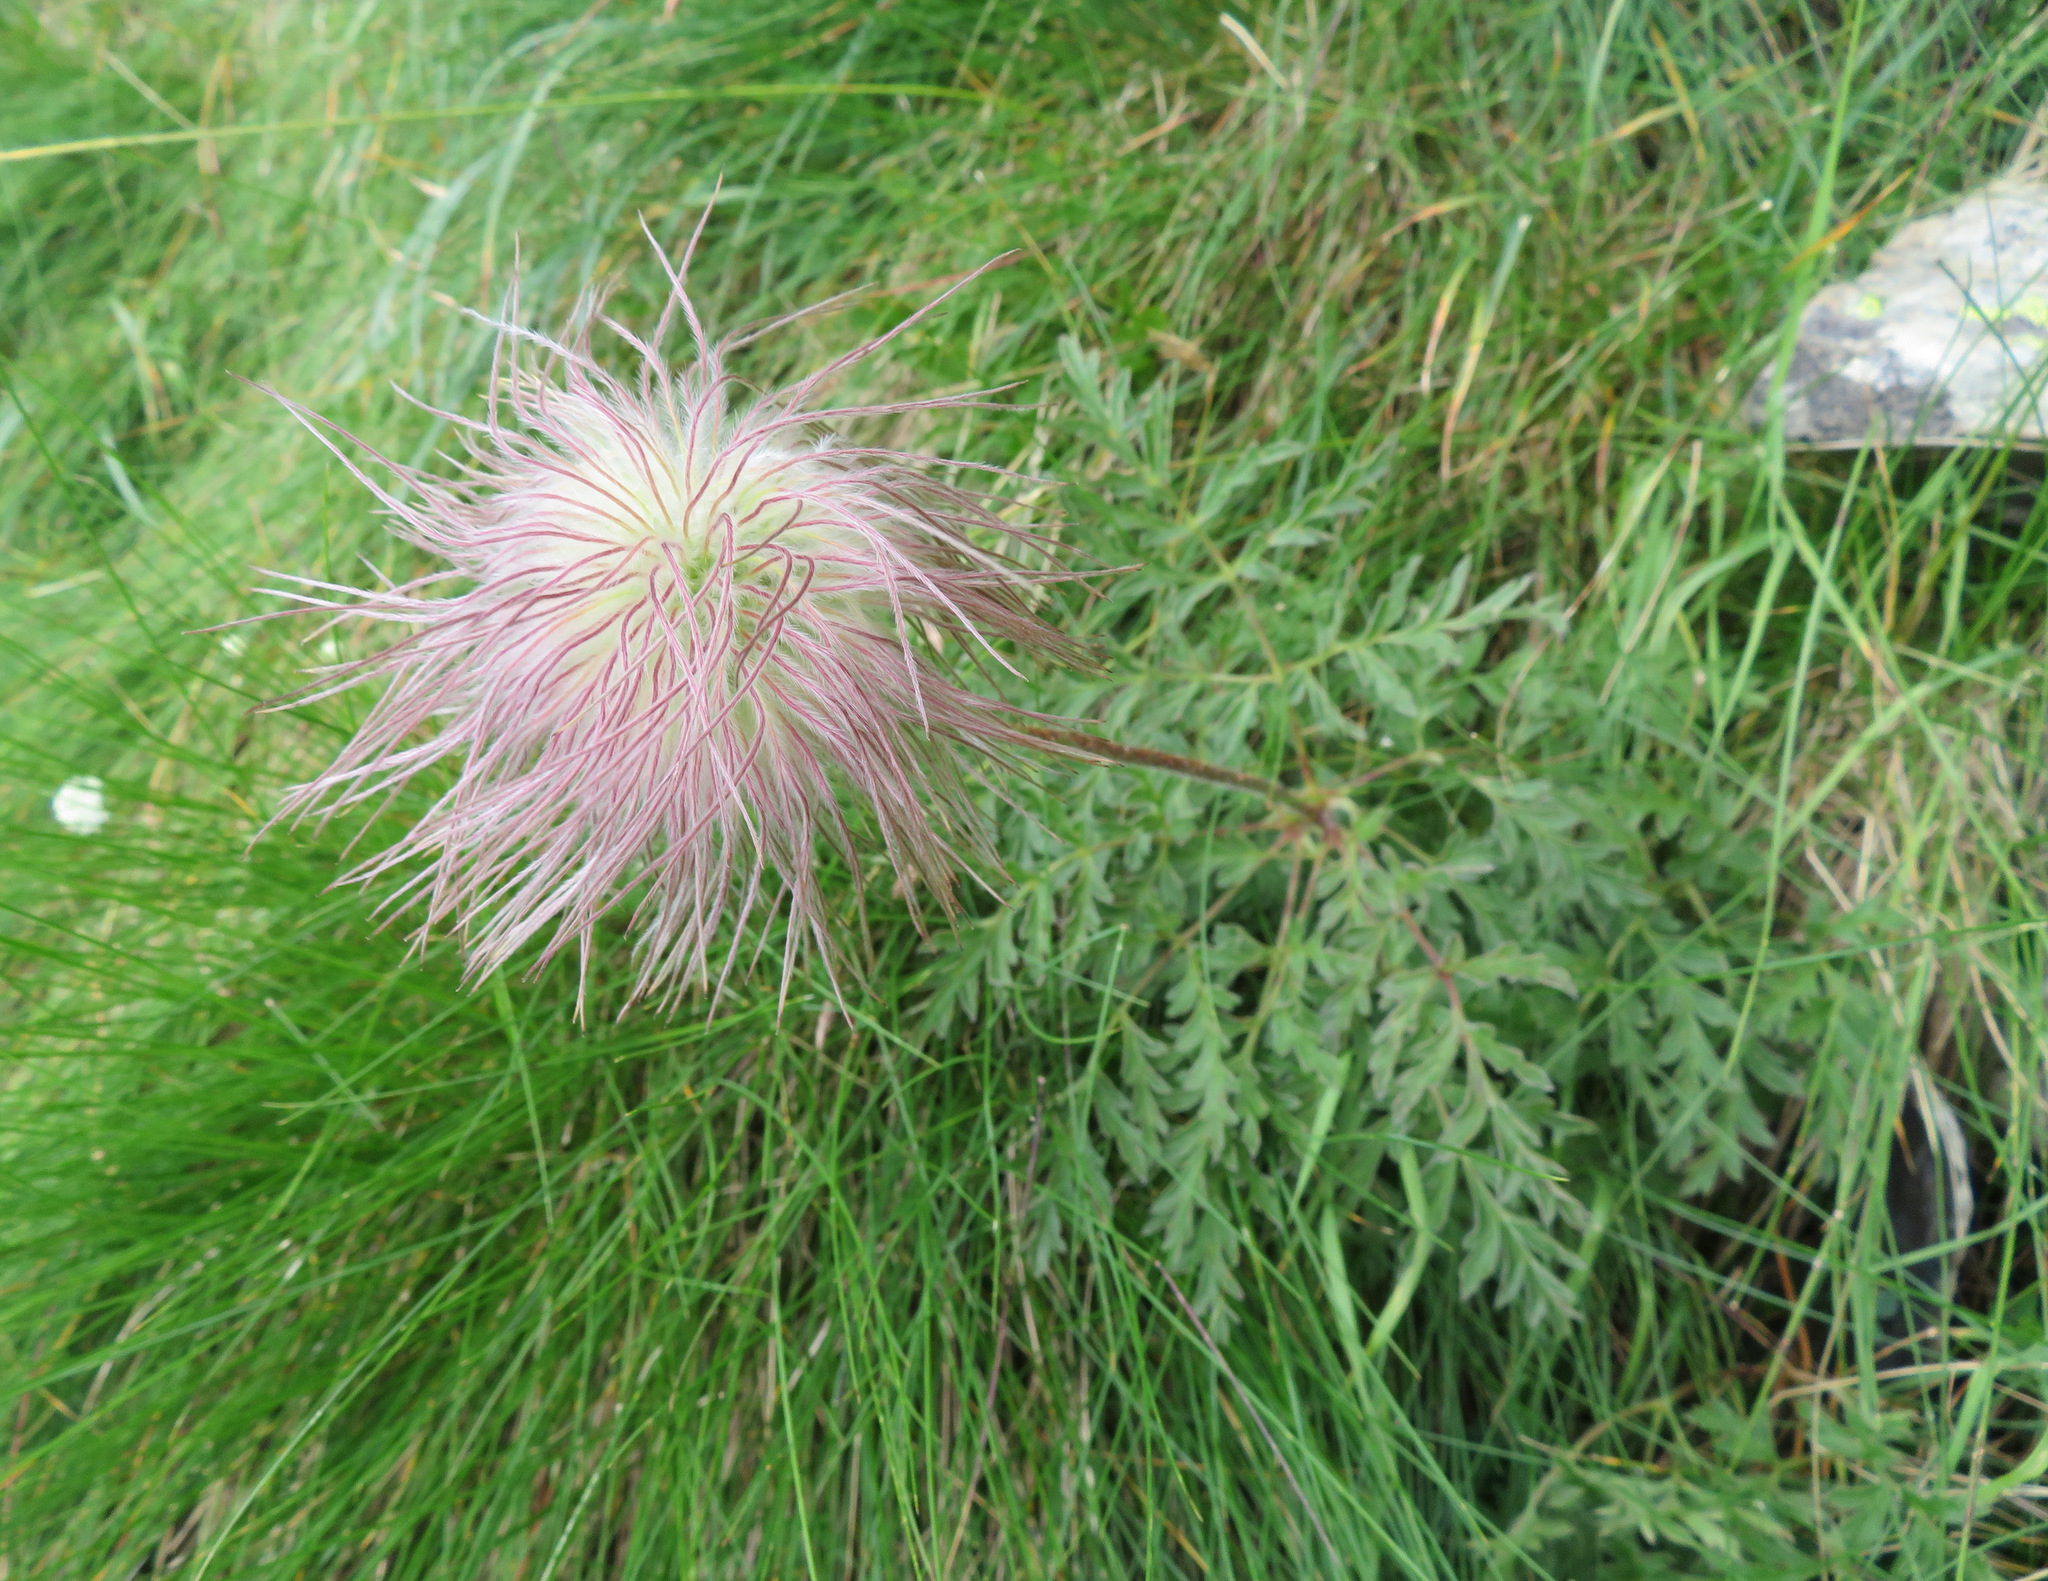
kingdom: Plantae
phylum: Tracheophyta
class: Magnoliopsida
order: Ranunculales
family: Ranunculaceae
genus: Pulsatilla
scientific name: Pulsatilla alpina
